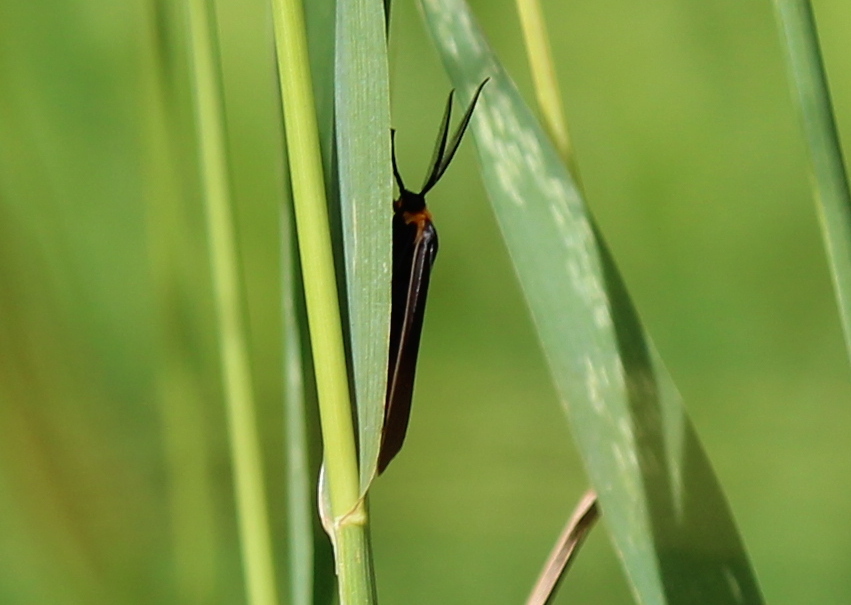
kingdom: Animalia
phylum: Arthropoda
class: Insecta
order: Lepidoptera
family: Erebidae
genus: Cisseps
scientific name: Cisseps fulvicollis
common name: Yellow-collared scape moth
